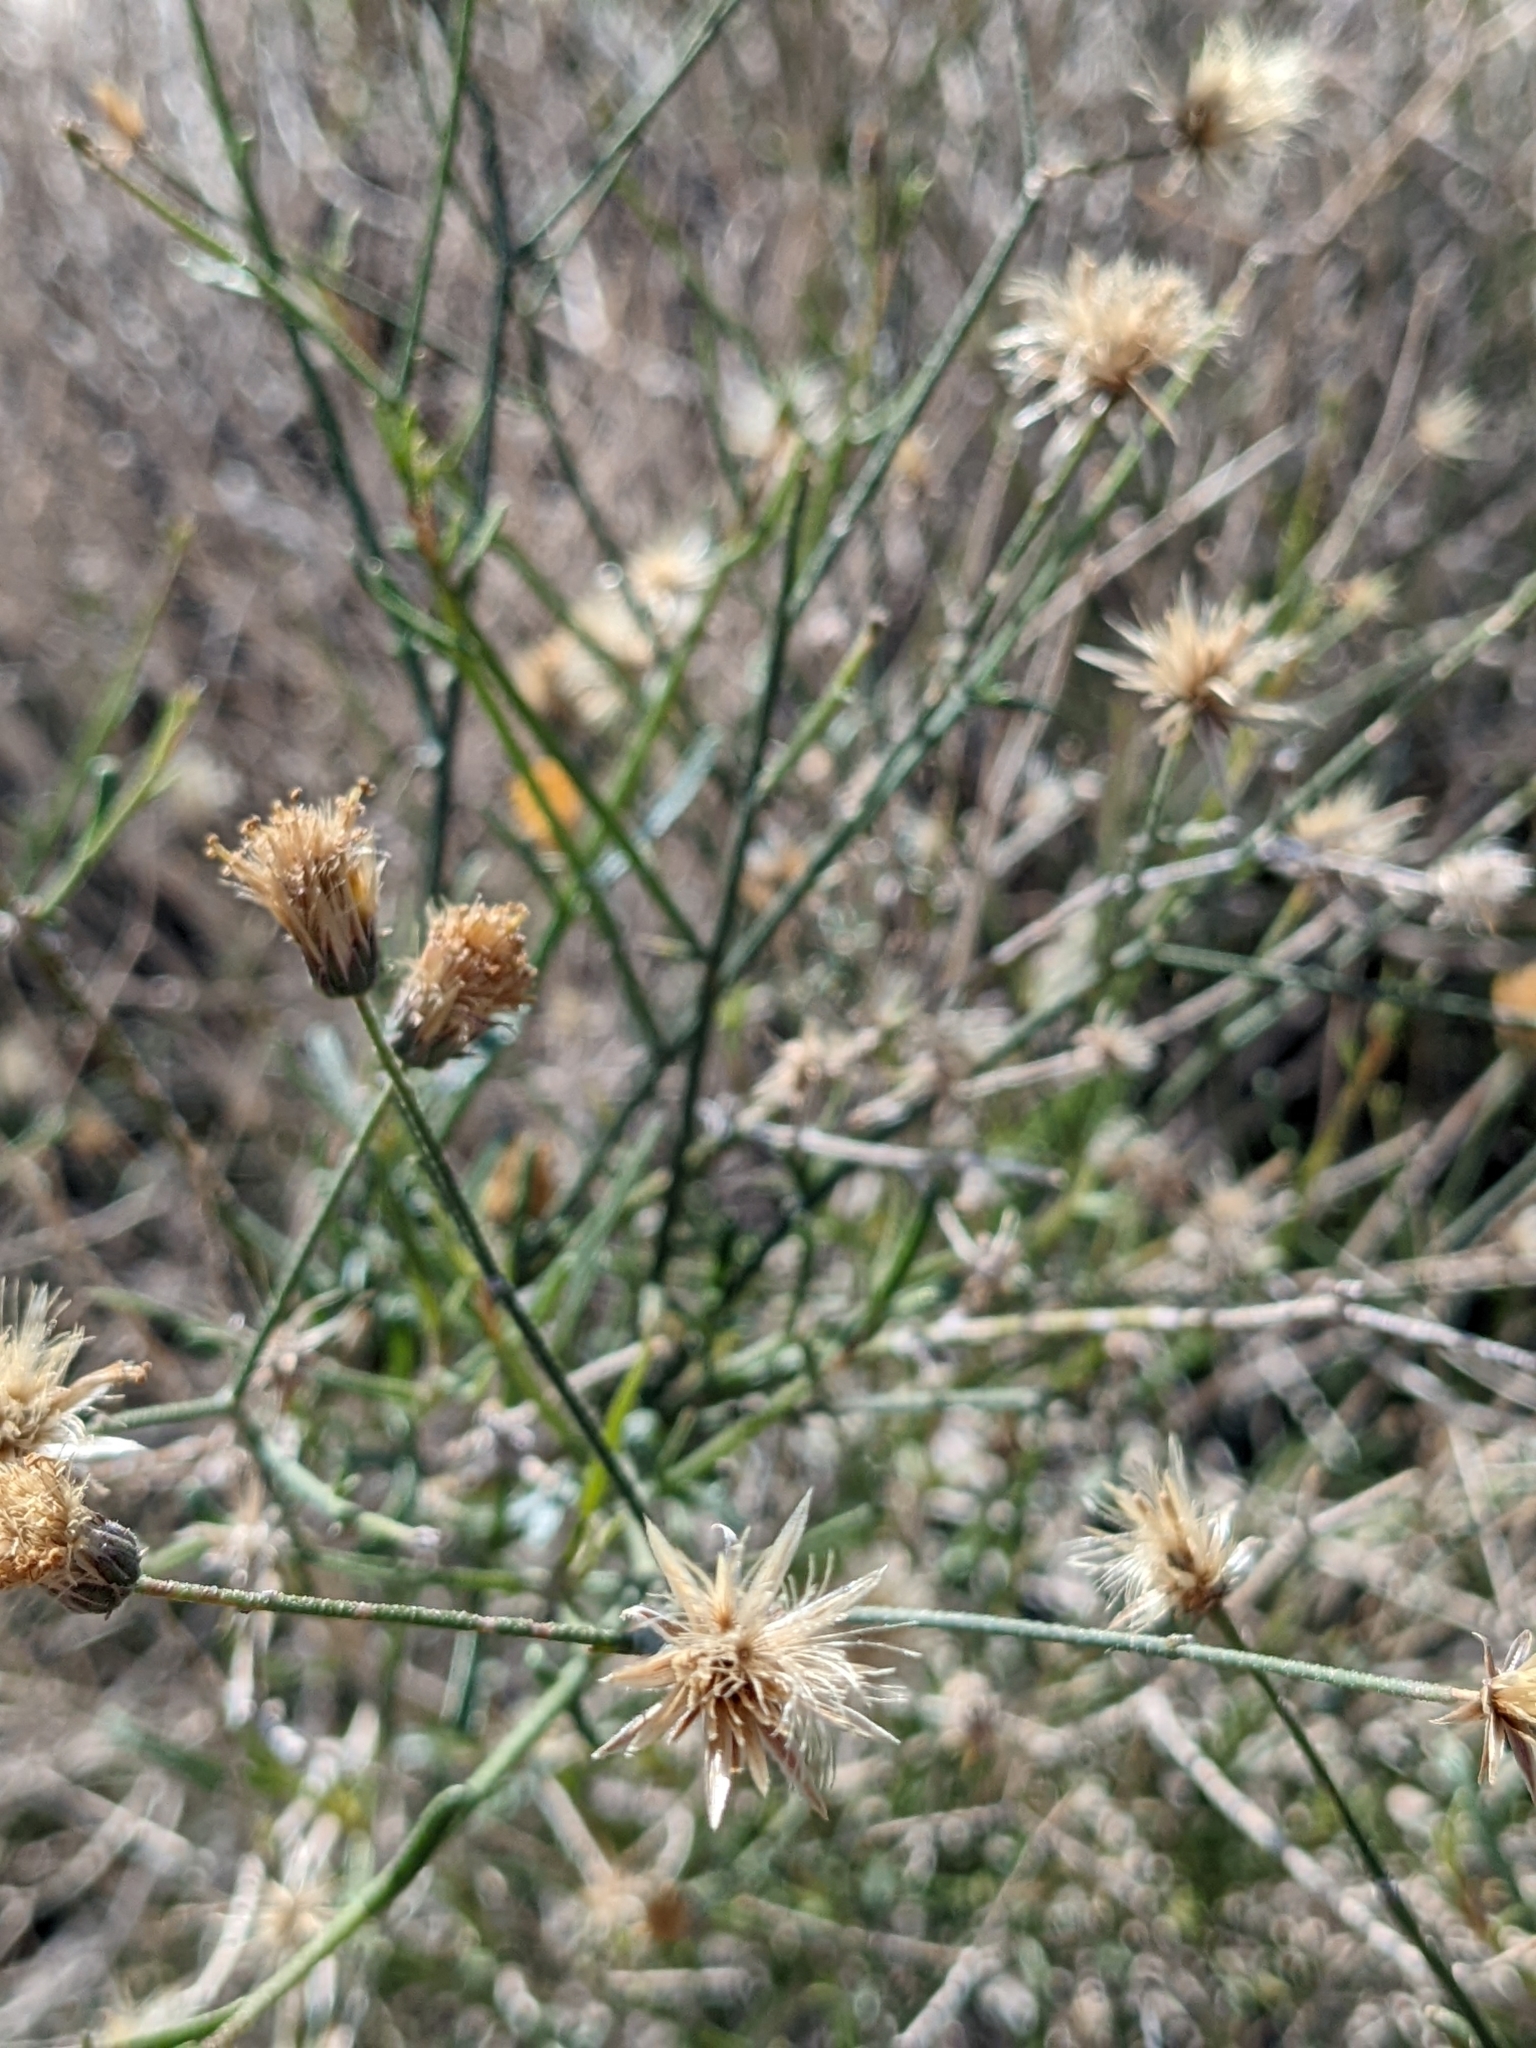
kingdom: Plantae
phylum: Tracheophyta
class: Magnoliopsida
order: Asterales
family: Asteraceae
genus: Bebbia
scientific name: Bebbia juncea
